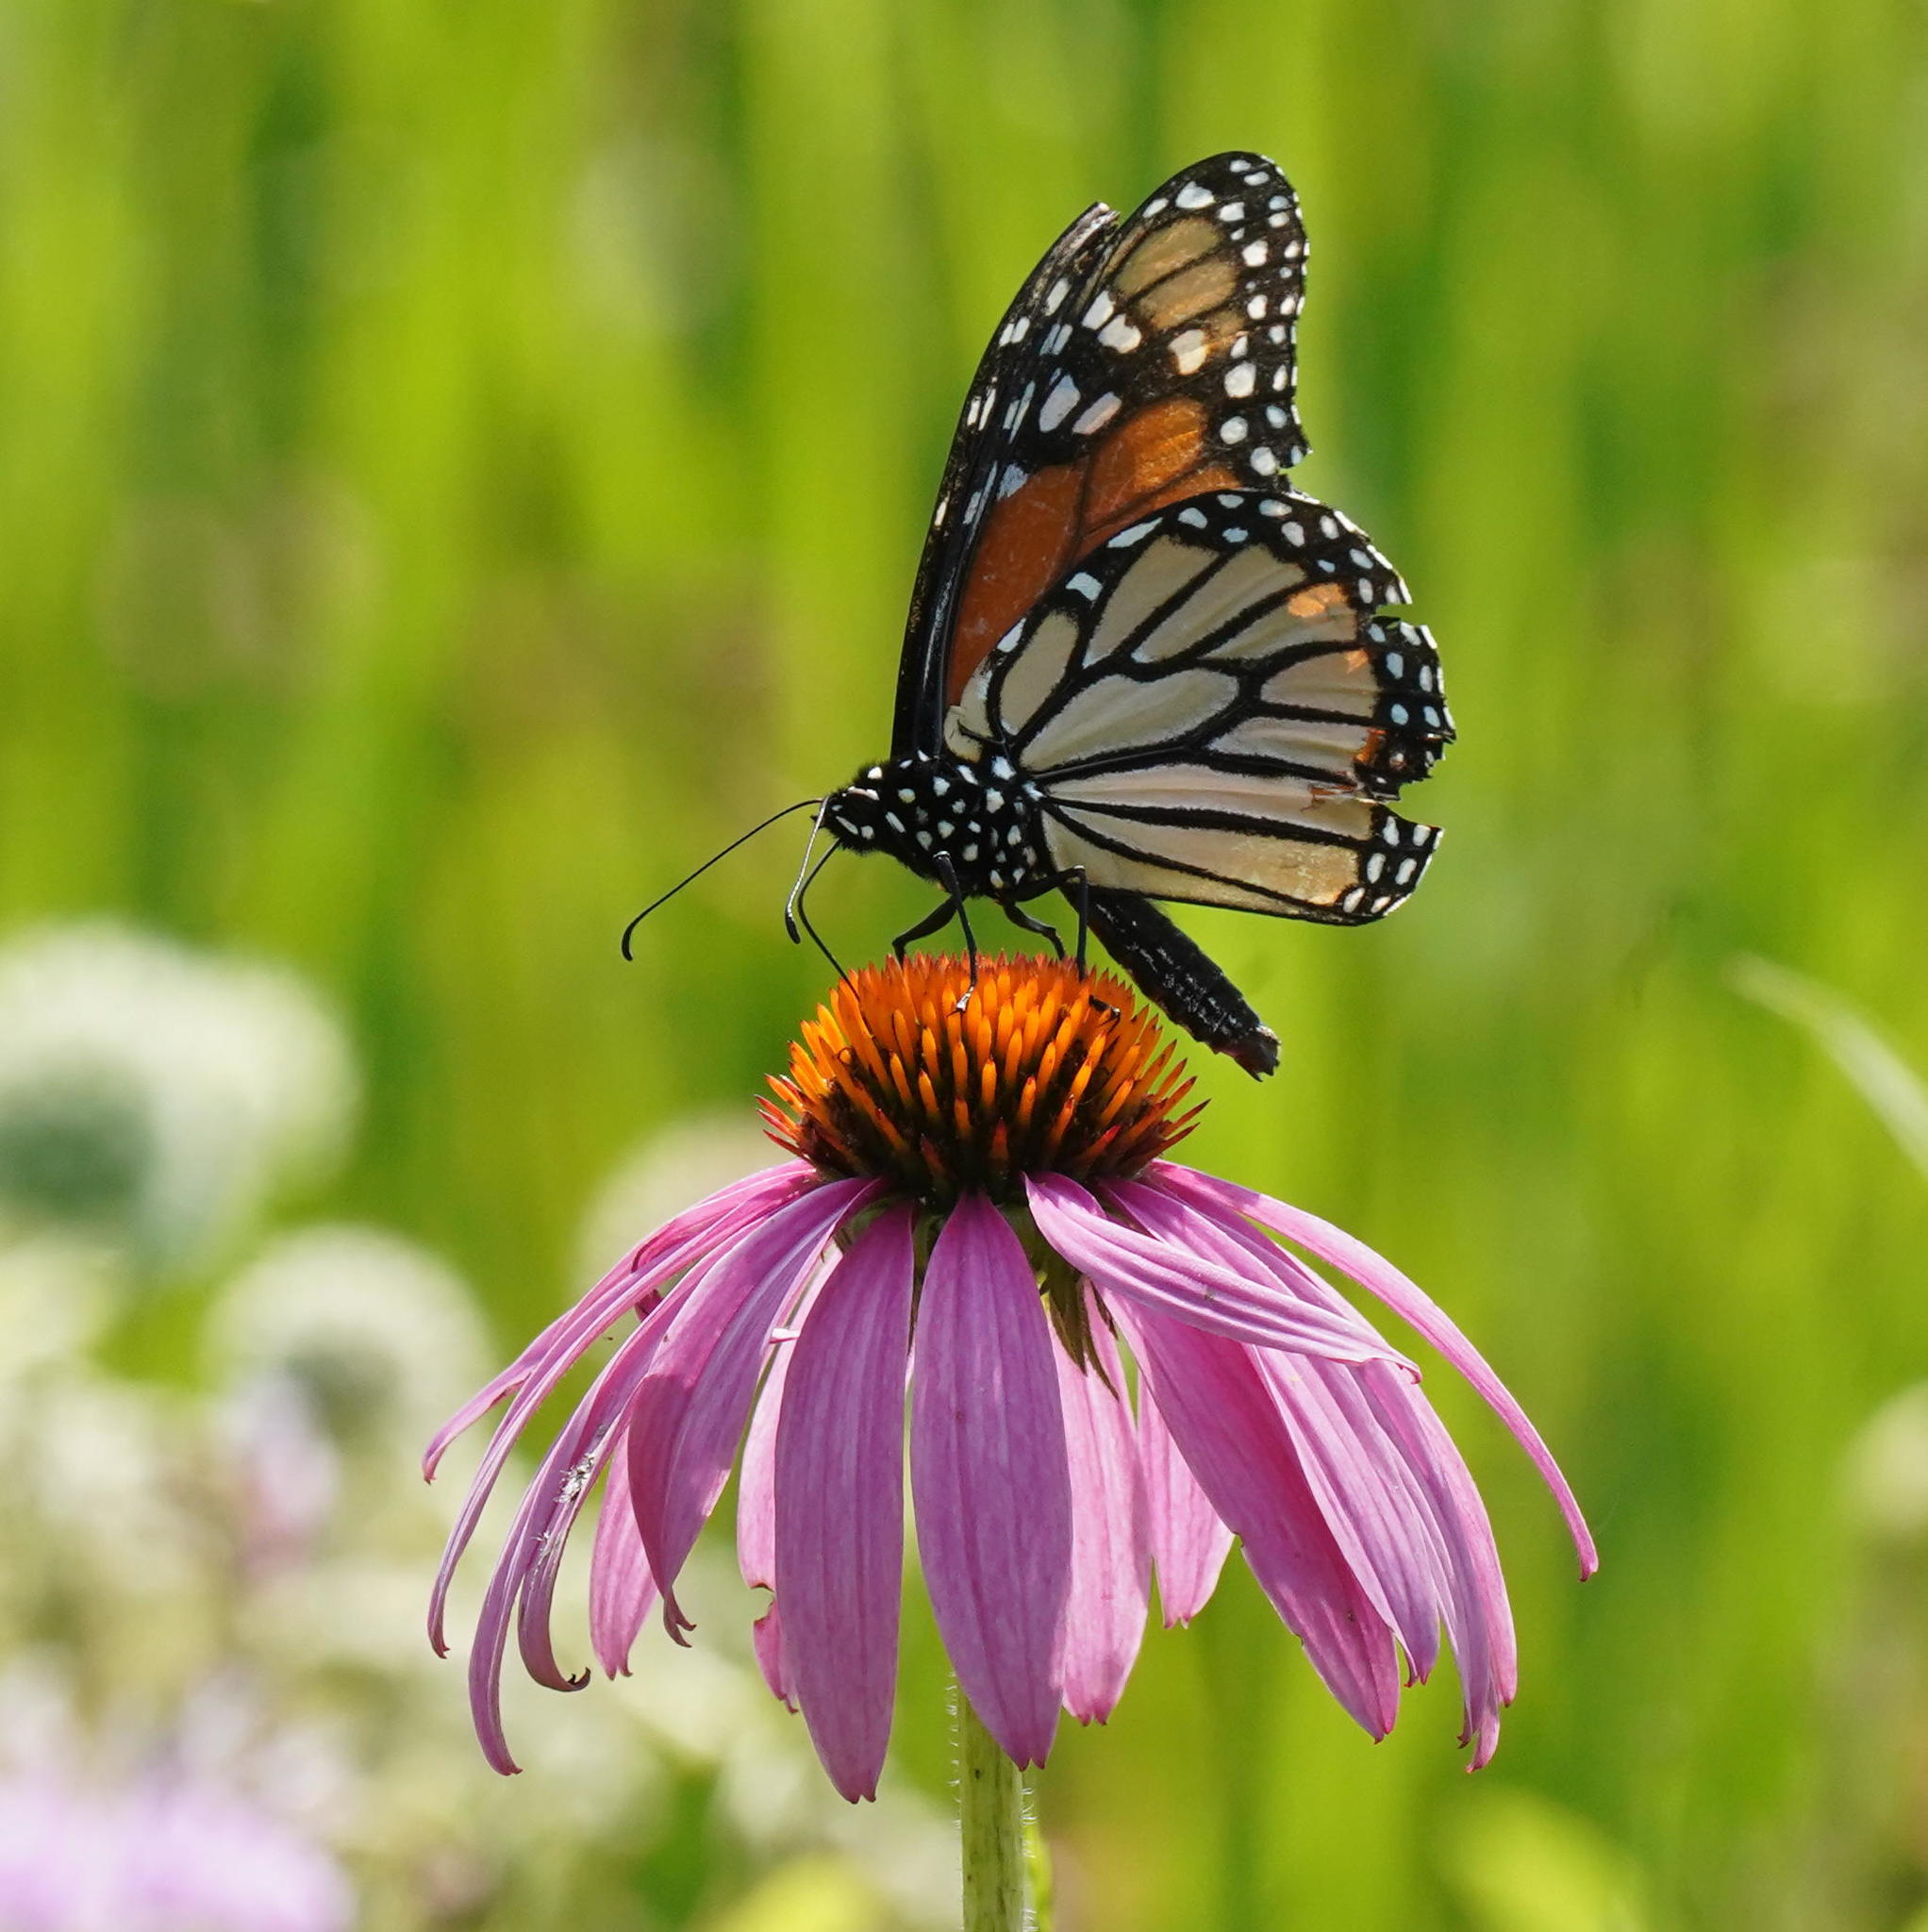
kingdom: Animalia
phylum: Arthropoda
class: Insecta
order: Lepidoptera
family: Nymphalidae
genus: Danaus
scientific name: Danaus plexippus
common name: Monarch
